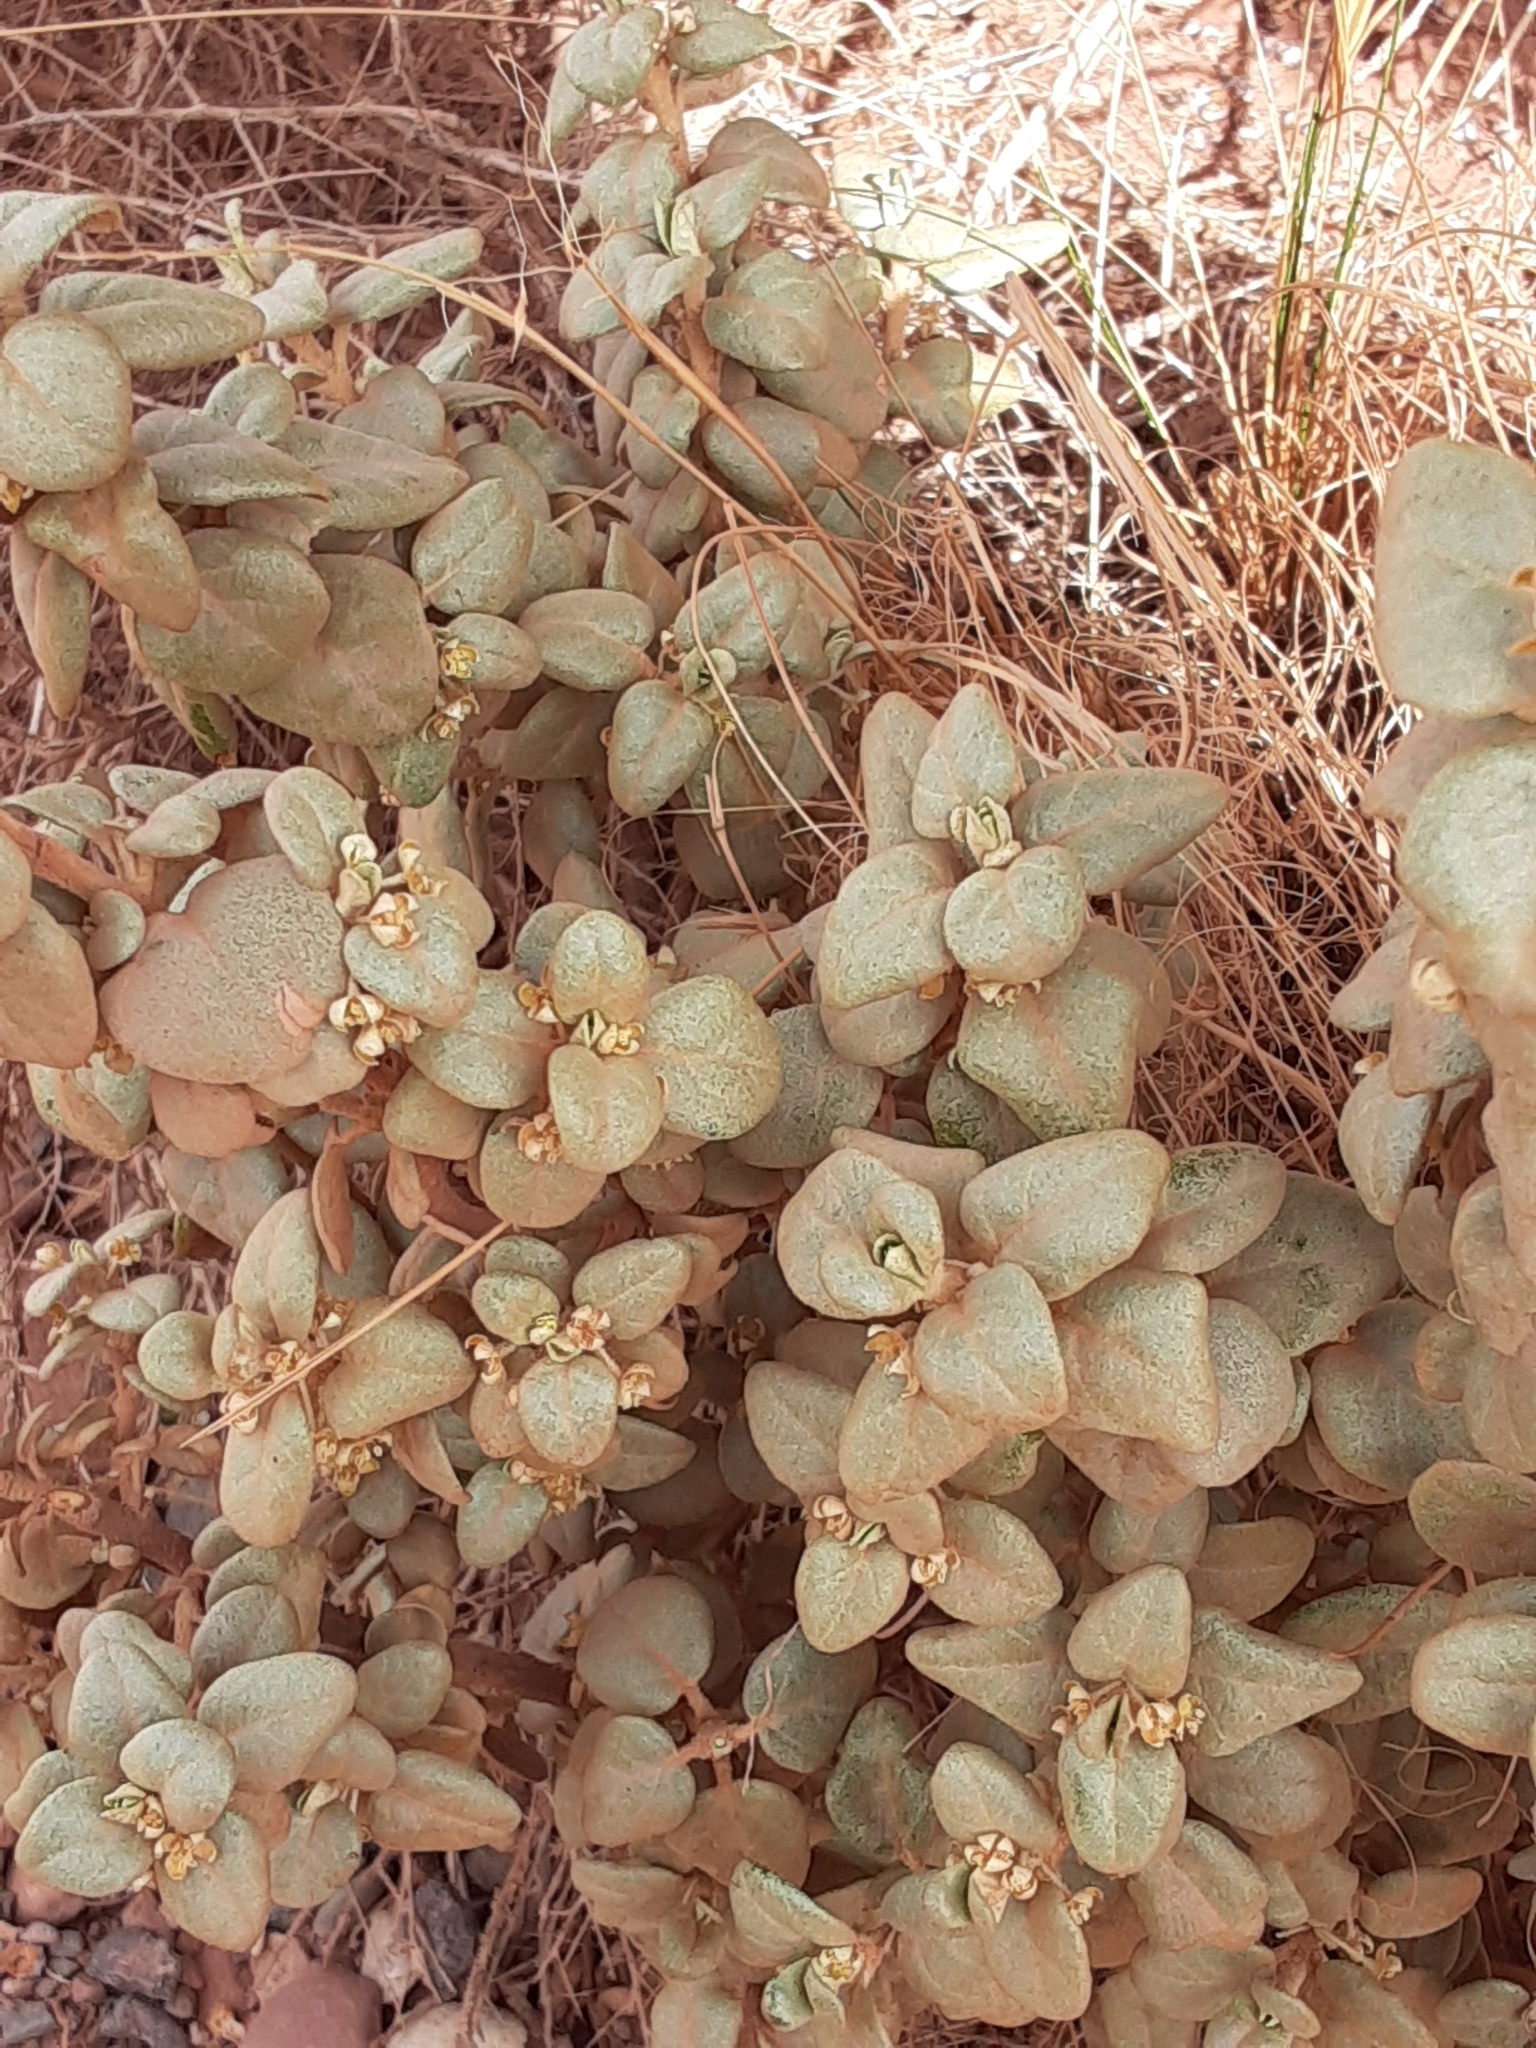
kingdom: Plantae
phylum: Tracheophyta
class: Magnoliopsida
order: Rosales
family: Elaeagnaceae
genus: Shepherdia
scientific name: Shepherdia rotundifolia
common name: Silverscale
